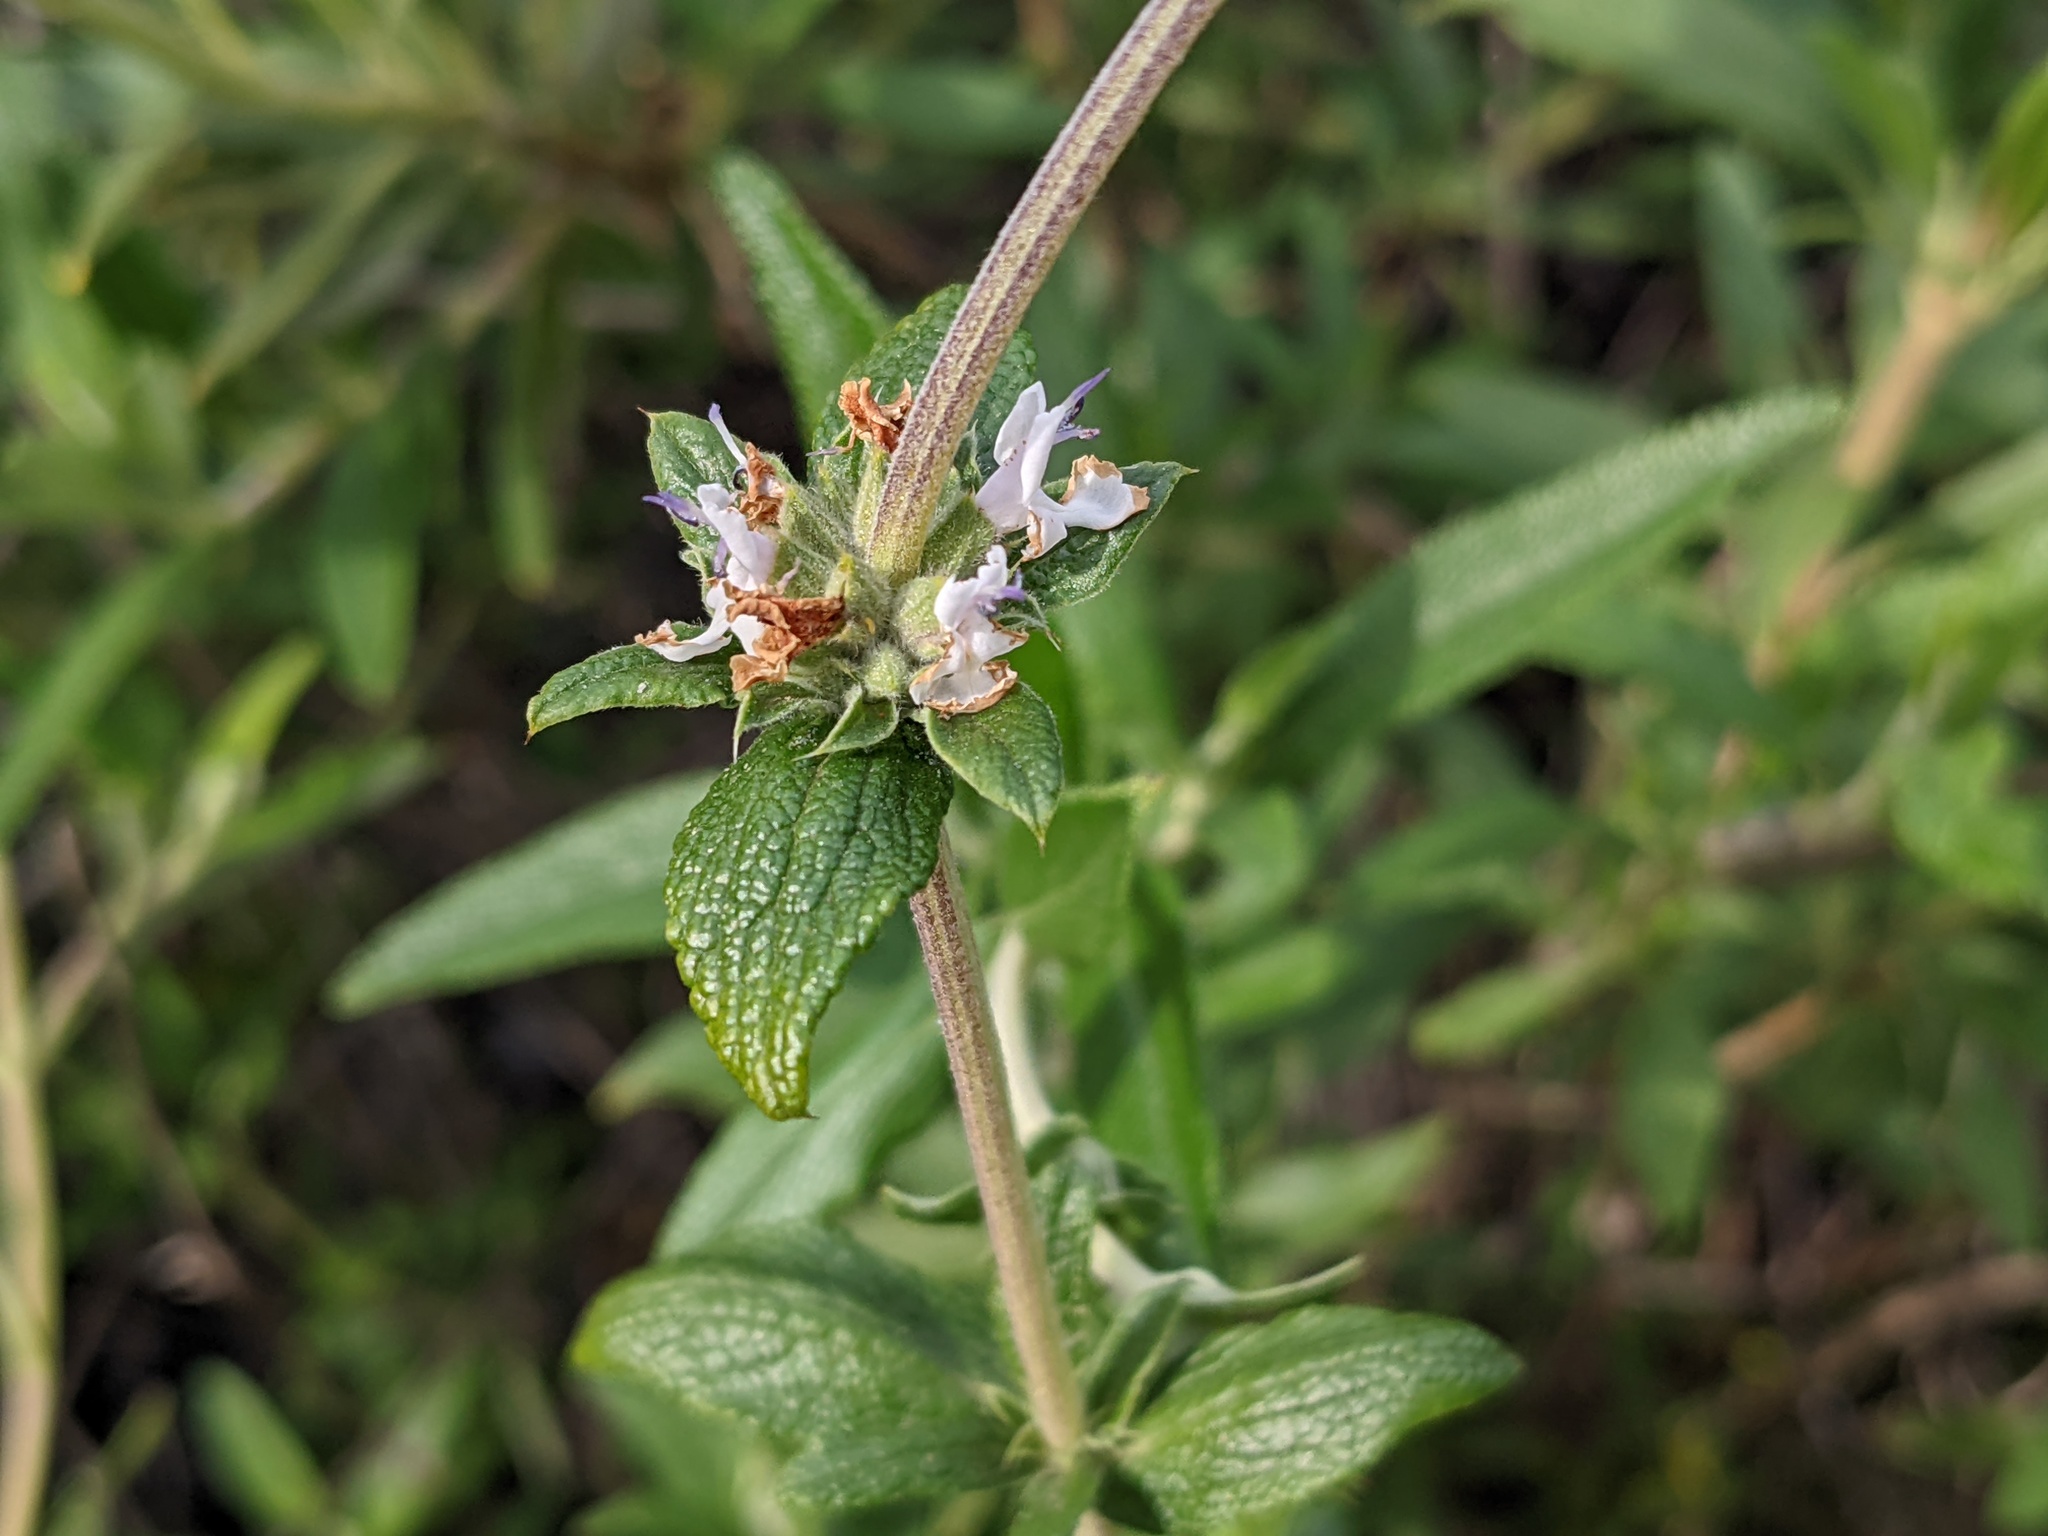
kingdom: Plantae
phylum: Tracheophyta
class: Magnoliopsida
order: Lamiales
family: Lamiaceae
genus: Salvia
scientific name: Salvia mellifera
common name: Black sage
